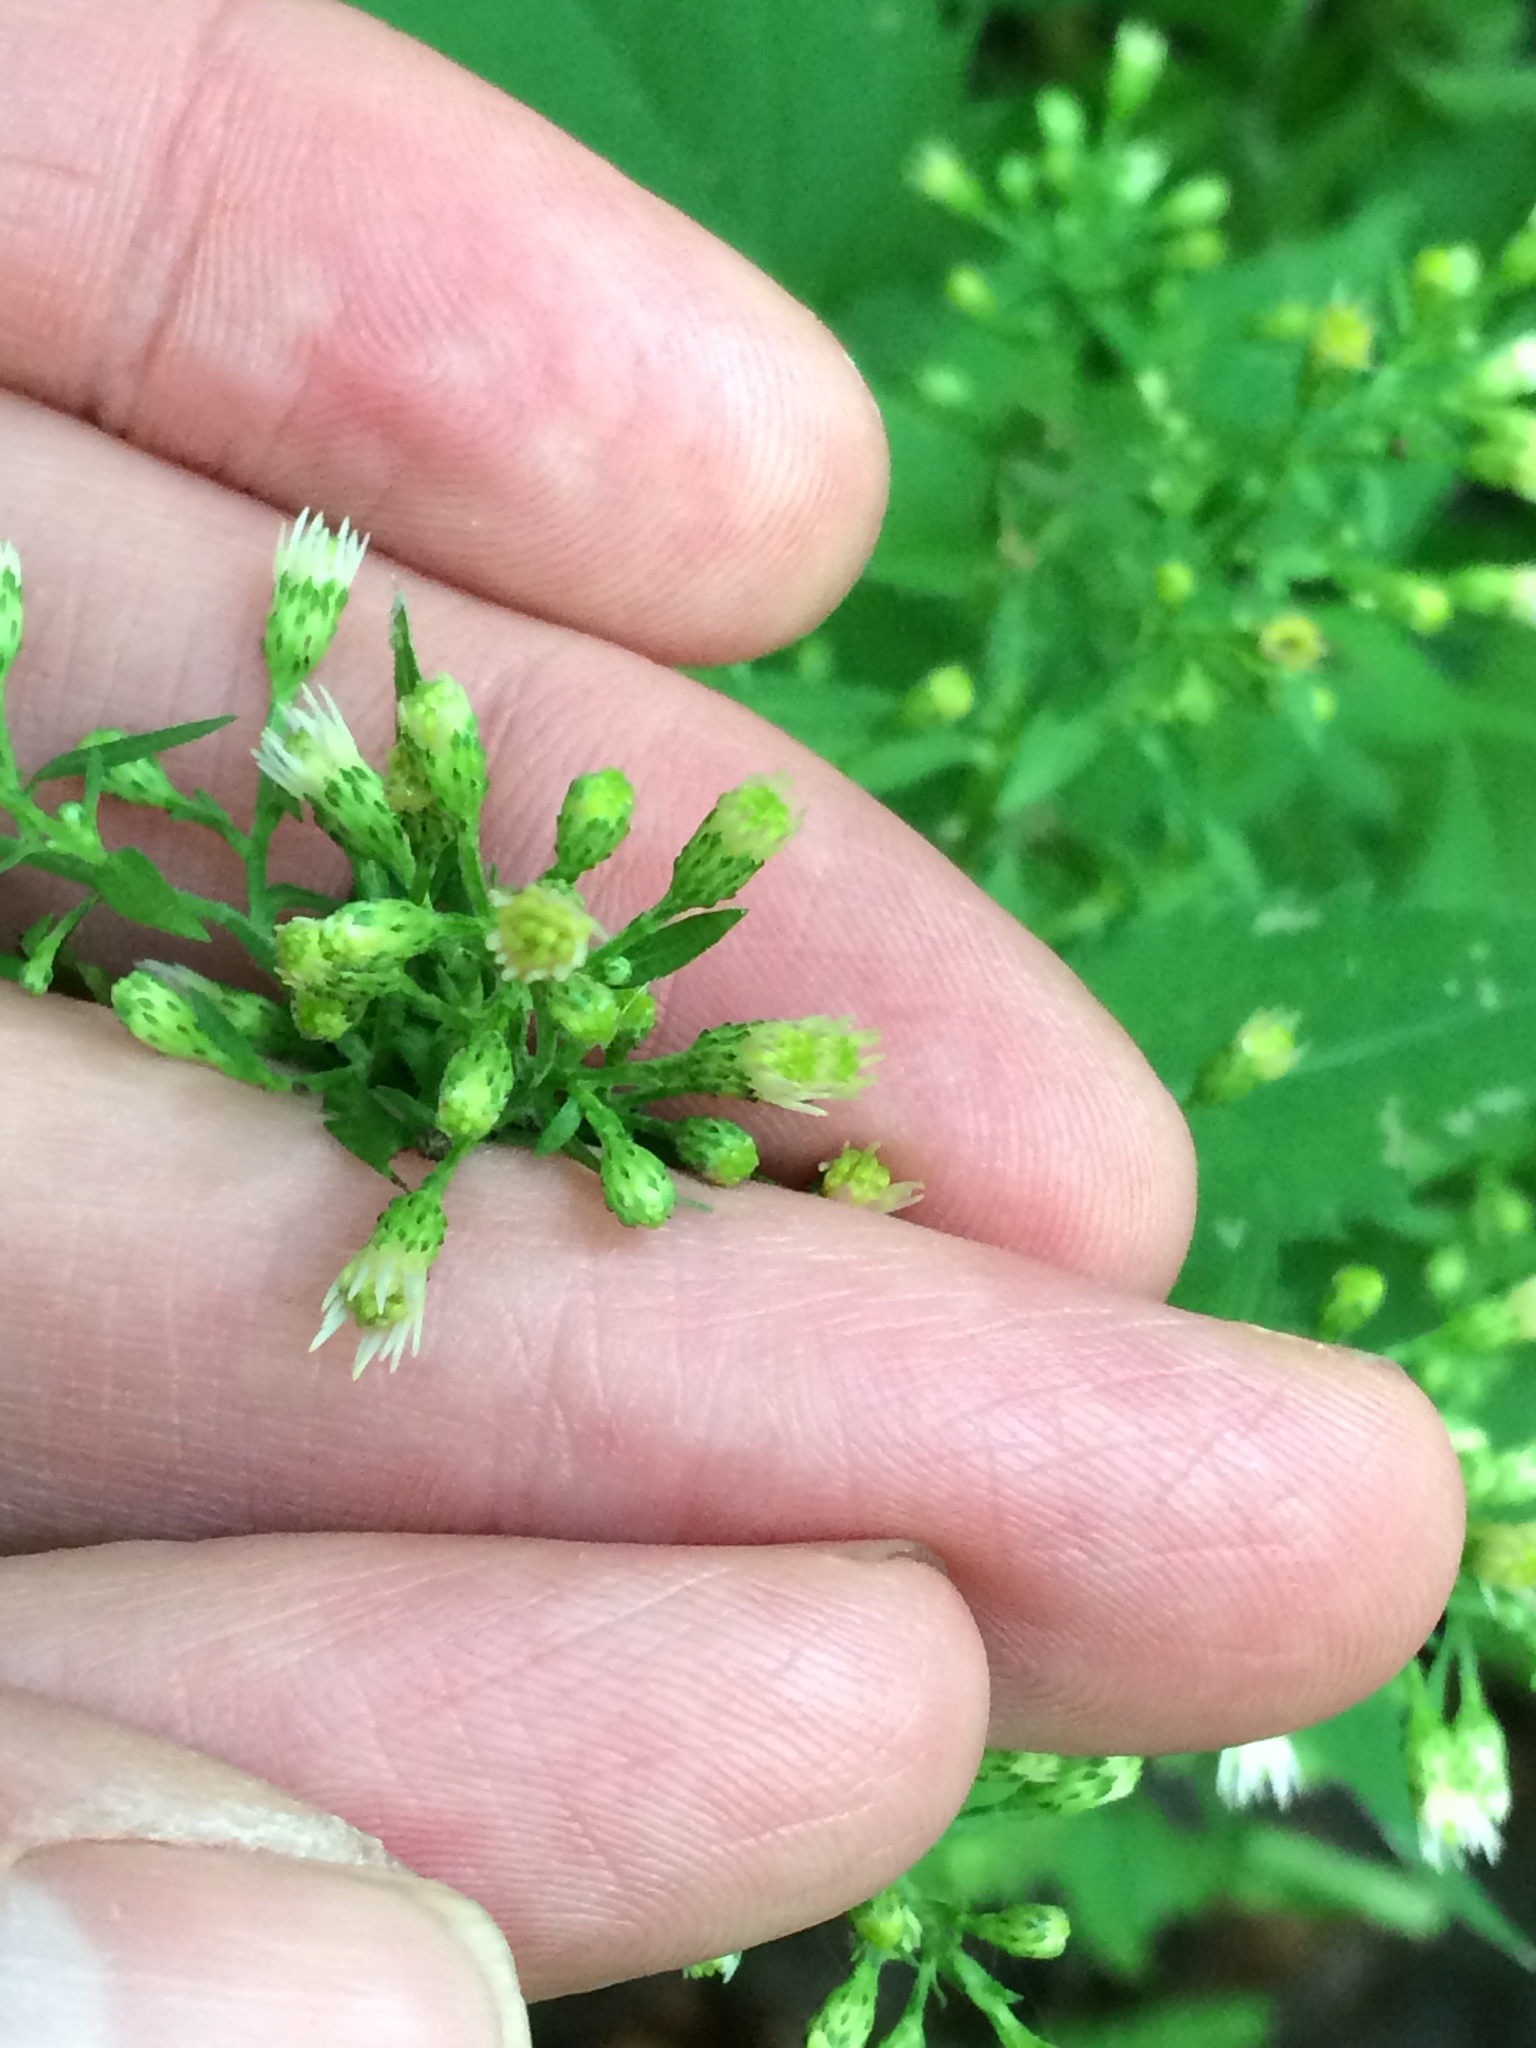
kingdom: Plantae
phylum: Tracheophyta
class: Magnoliopsida
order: Asterales
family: Asteraceae
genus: Eurybia
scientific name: Eurybia divaricata
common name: White wood aster
